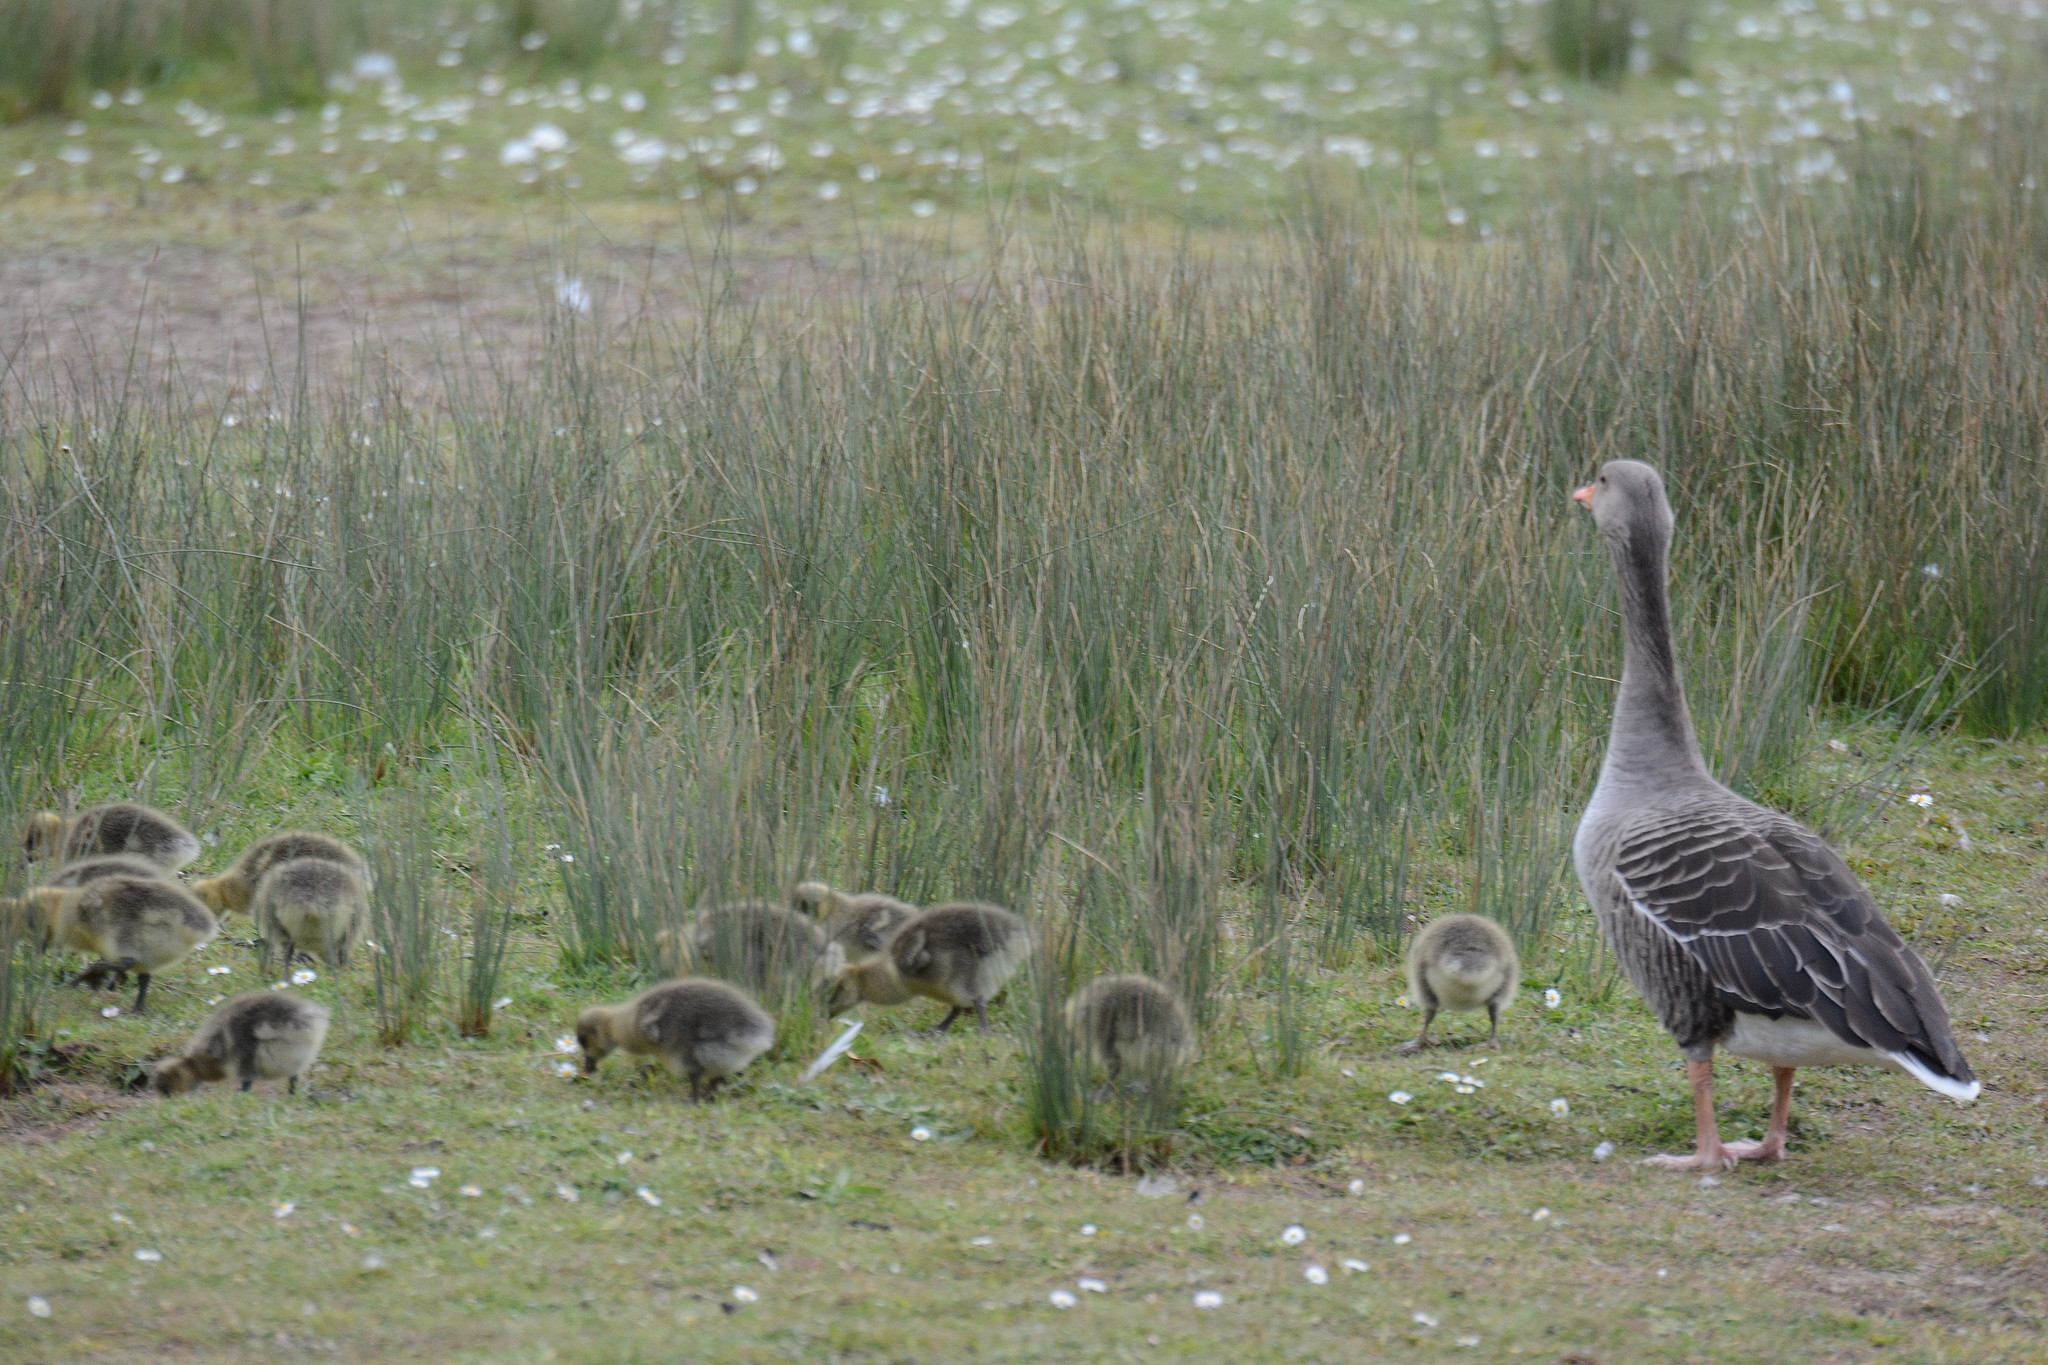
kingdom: Animalia
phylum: Chordata
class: Aves
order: Anseriformes
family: Anatidae
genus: Anser
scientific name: Anser anser
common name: Greylag goose
